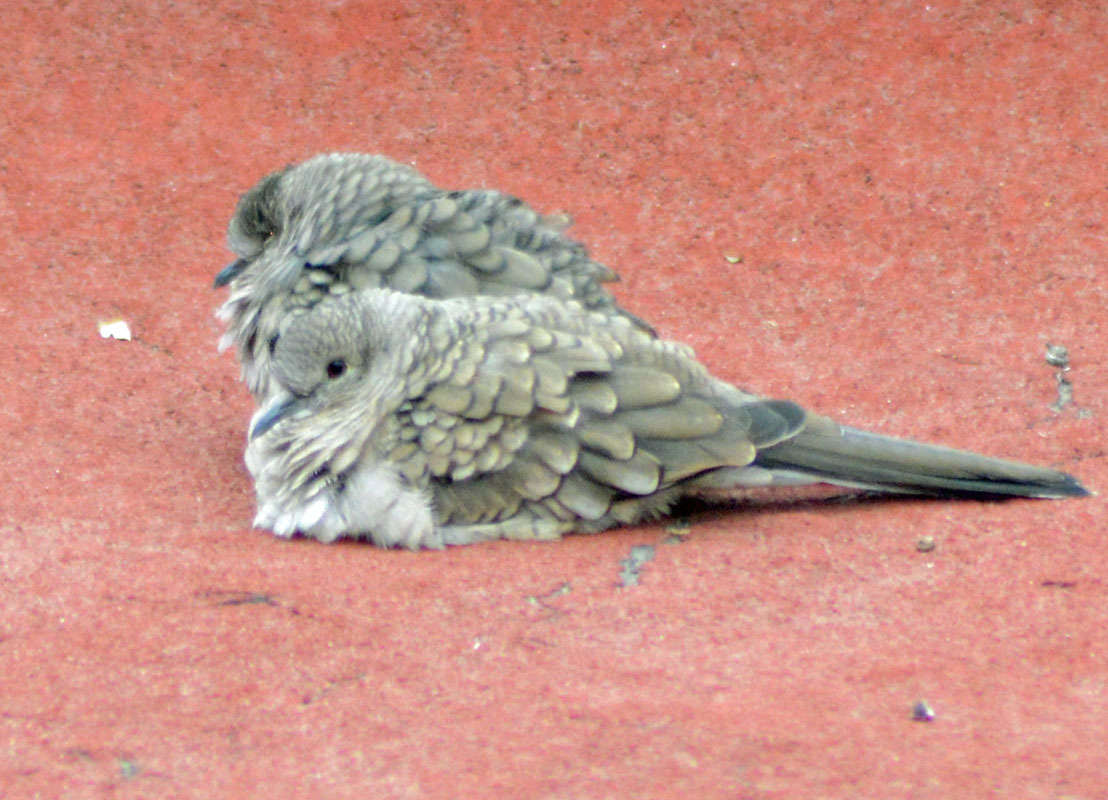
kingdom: Animalia
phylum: Chordata
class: Aves
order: Columbiformes
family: Columbidae
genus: Columbina
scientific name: Columbina inca
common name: Inca dove
